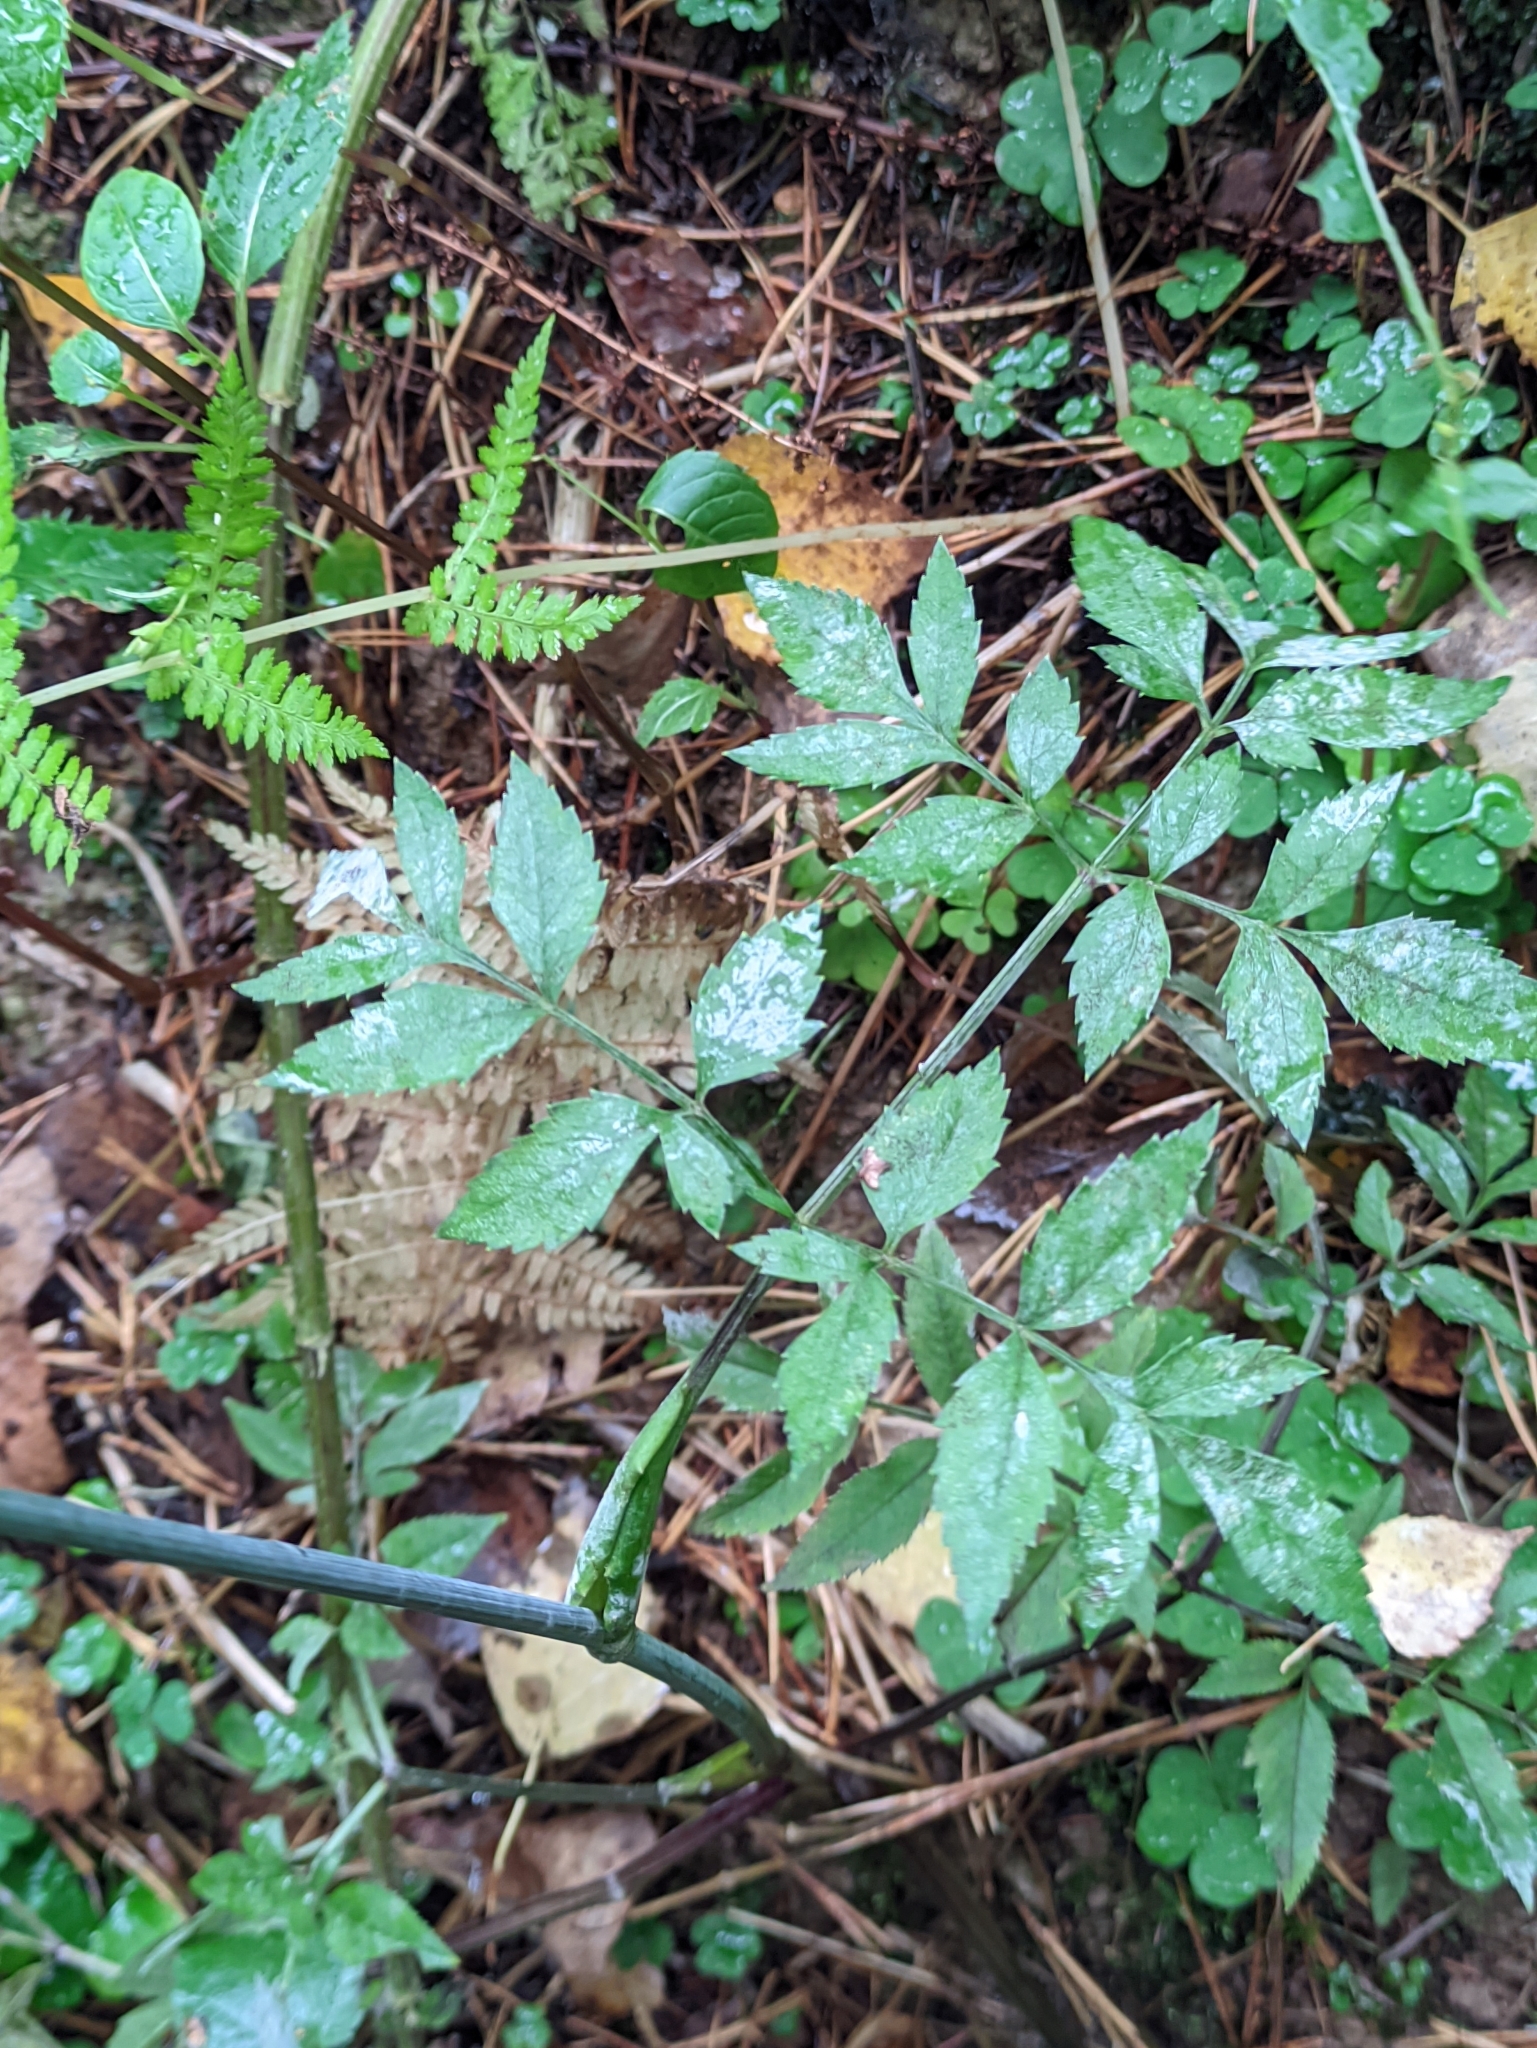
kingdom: Plantae
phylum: Tracheophyta
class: Magnoliopsida
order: Apiales
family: Apiaceae
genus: Angelica
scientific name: Angelica sylvestris
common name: Wild angelica
